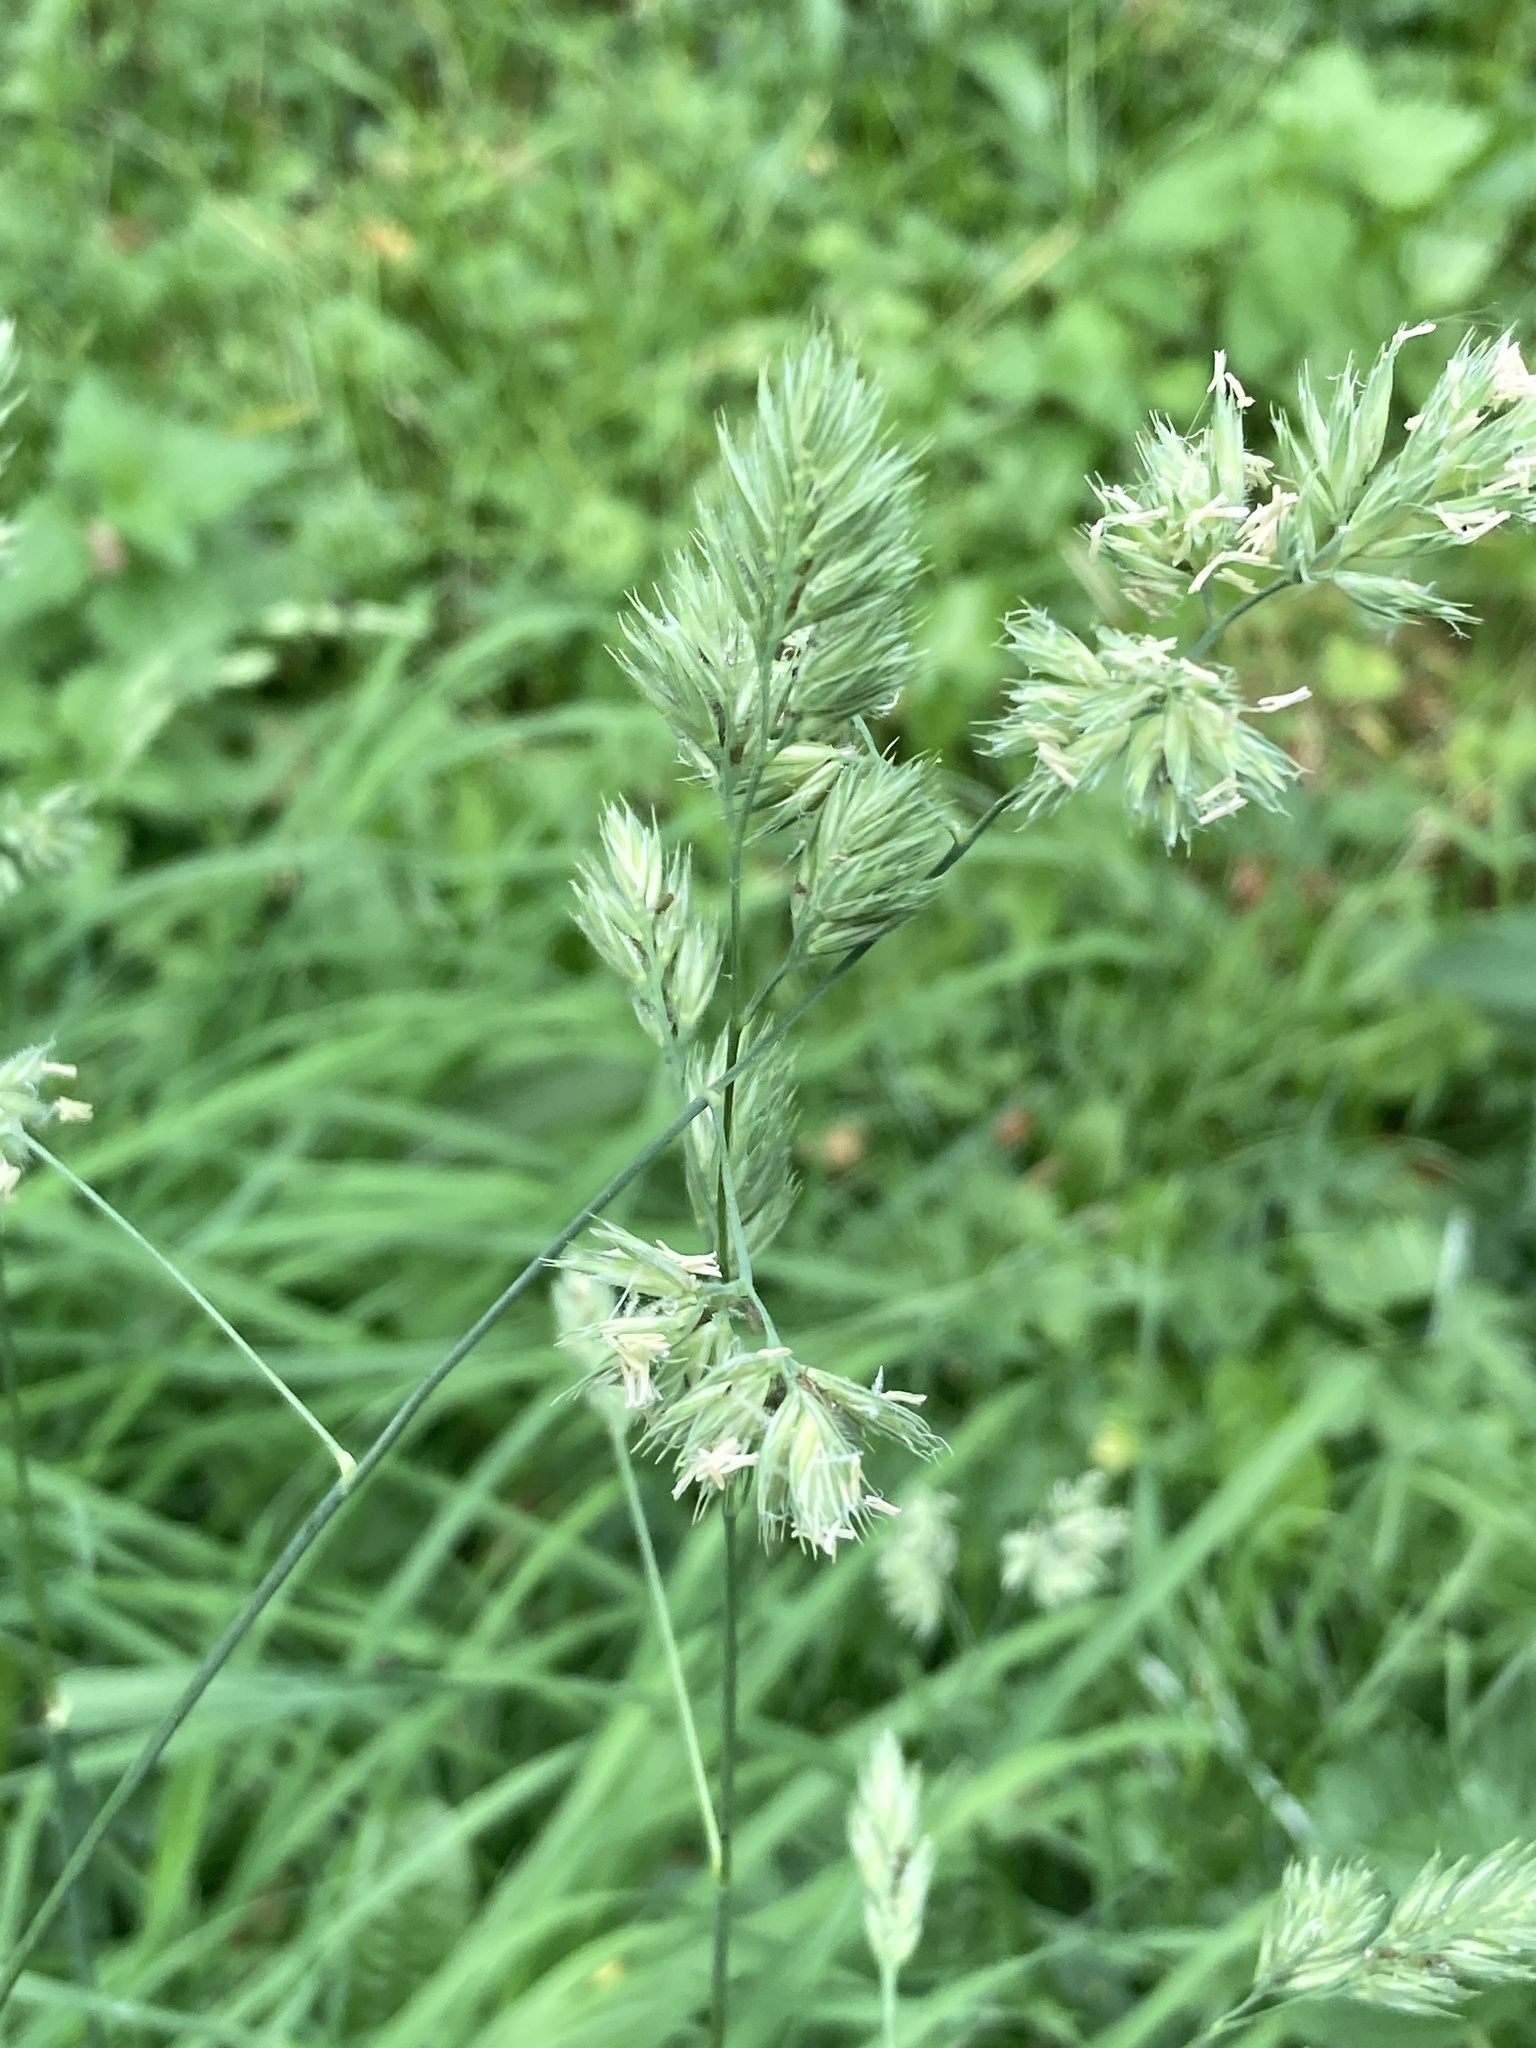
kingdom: Plantae
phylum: Tracheophyta
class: Liliopsida
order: Poales
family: Poaceae
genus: Dactylis
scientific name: Dactylis glomerata
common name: Orchardgrass
